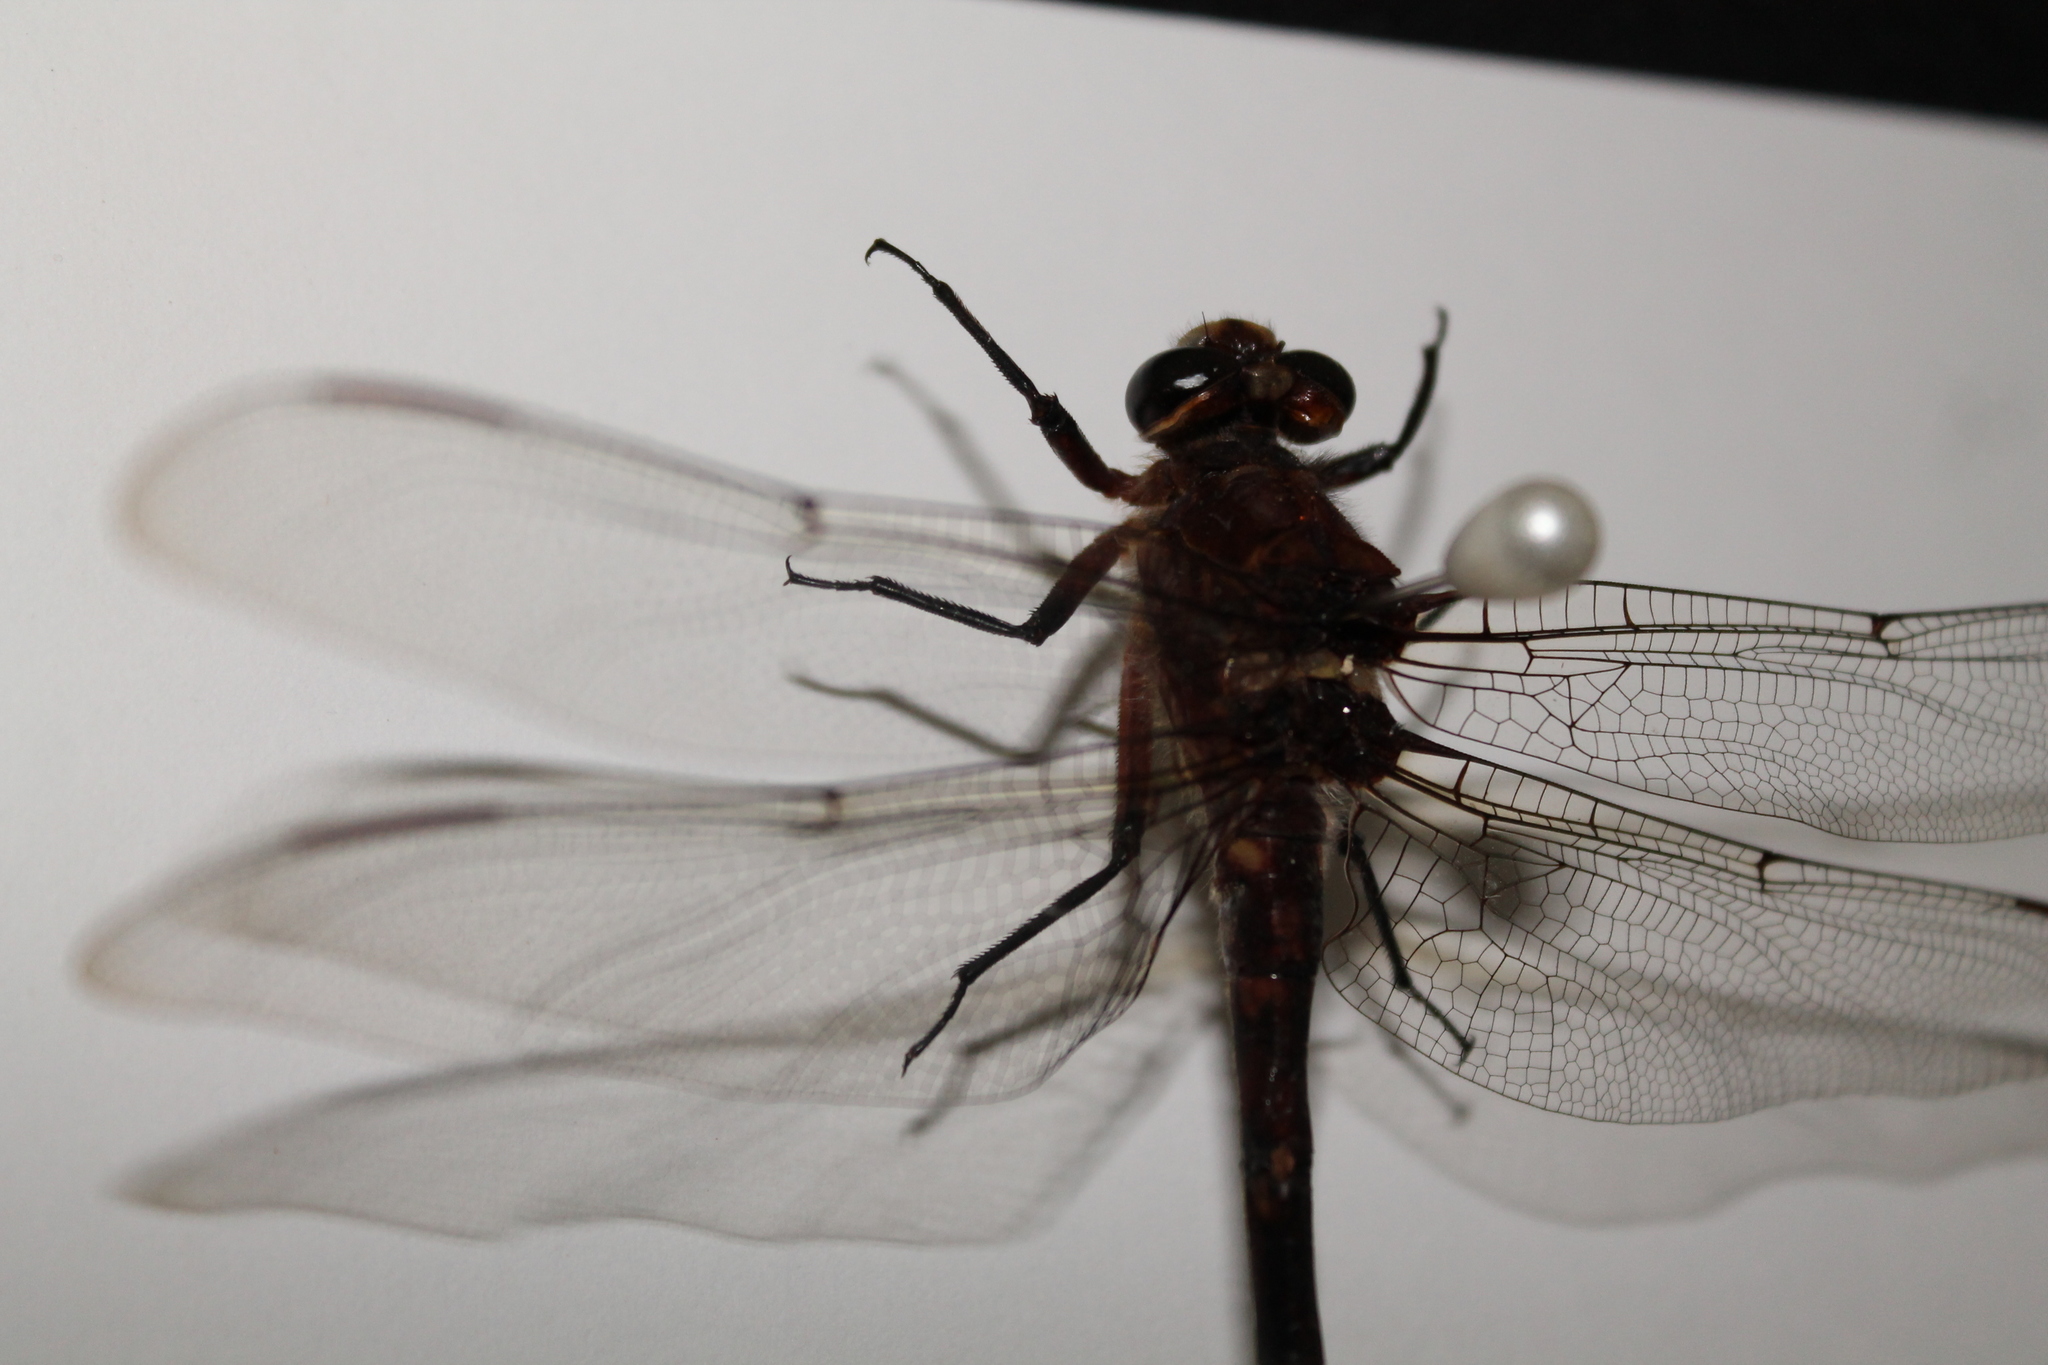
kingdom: Animalia
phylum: Arthropoda
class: Insecta
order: Odonata
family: Petaluridae
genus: Uropetala
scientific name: Uropetala carovei
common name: Bush giant dragonfly
